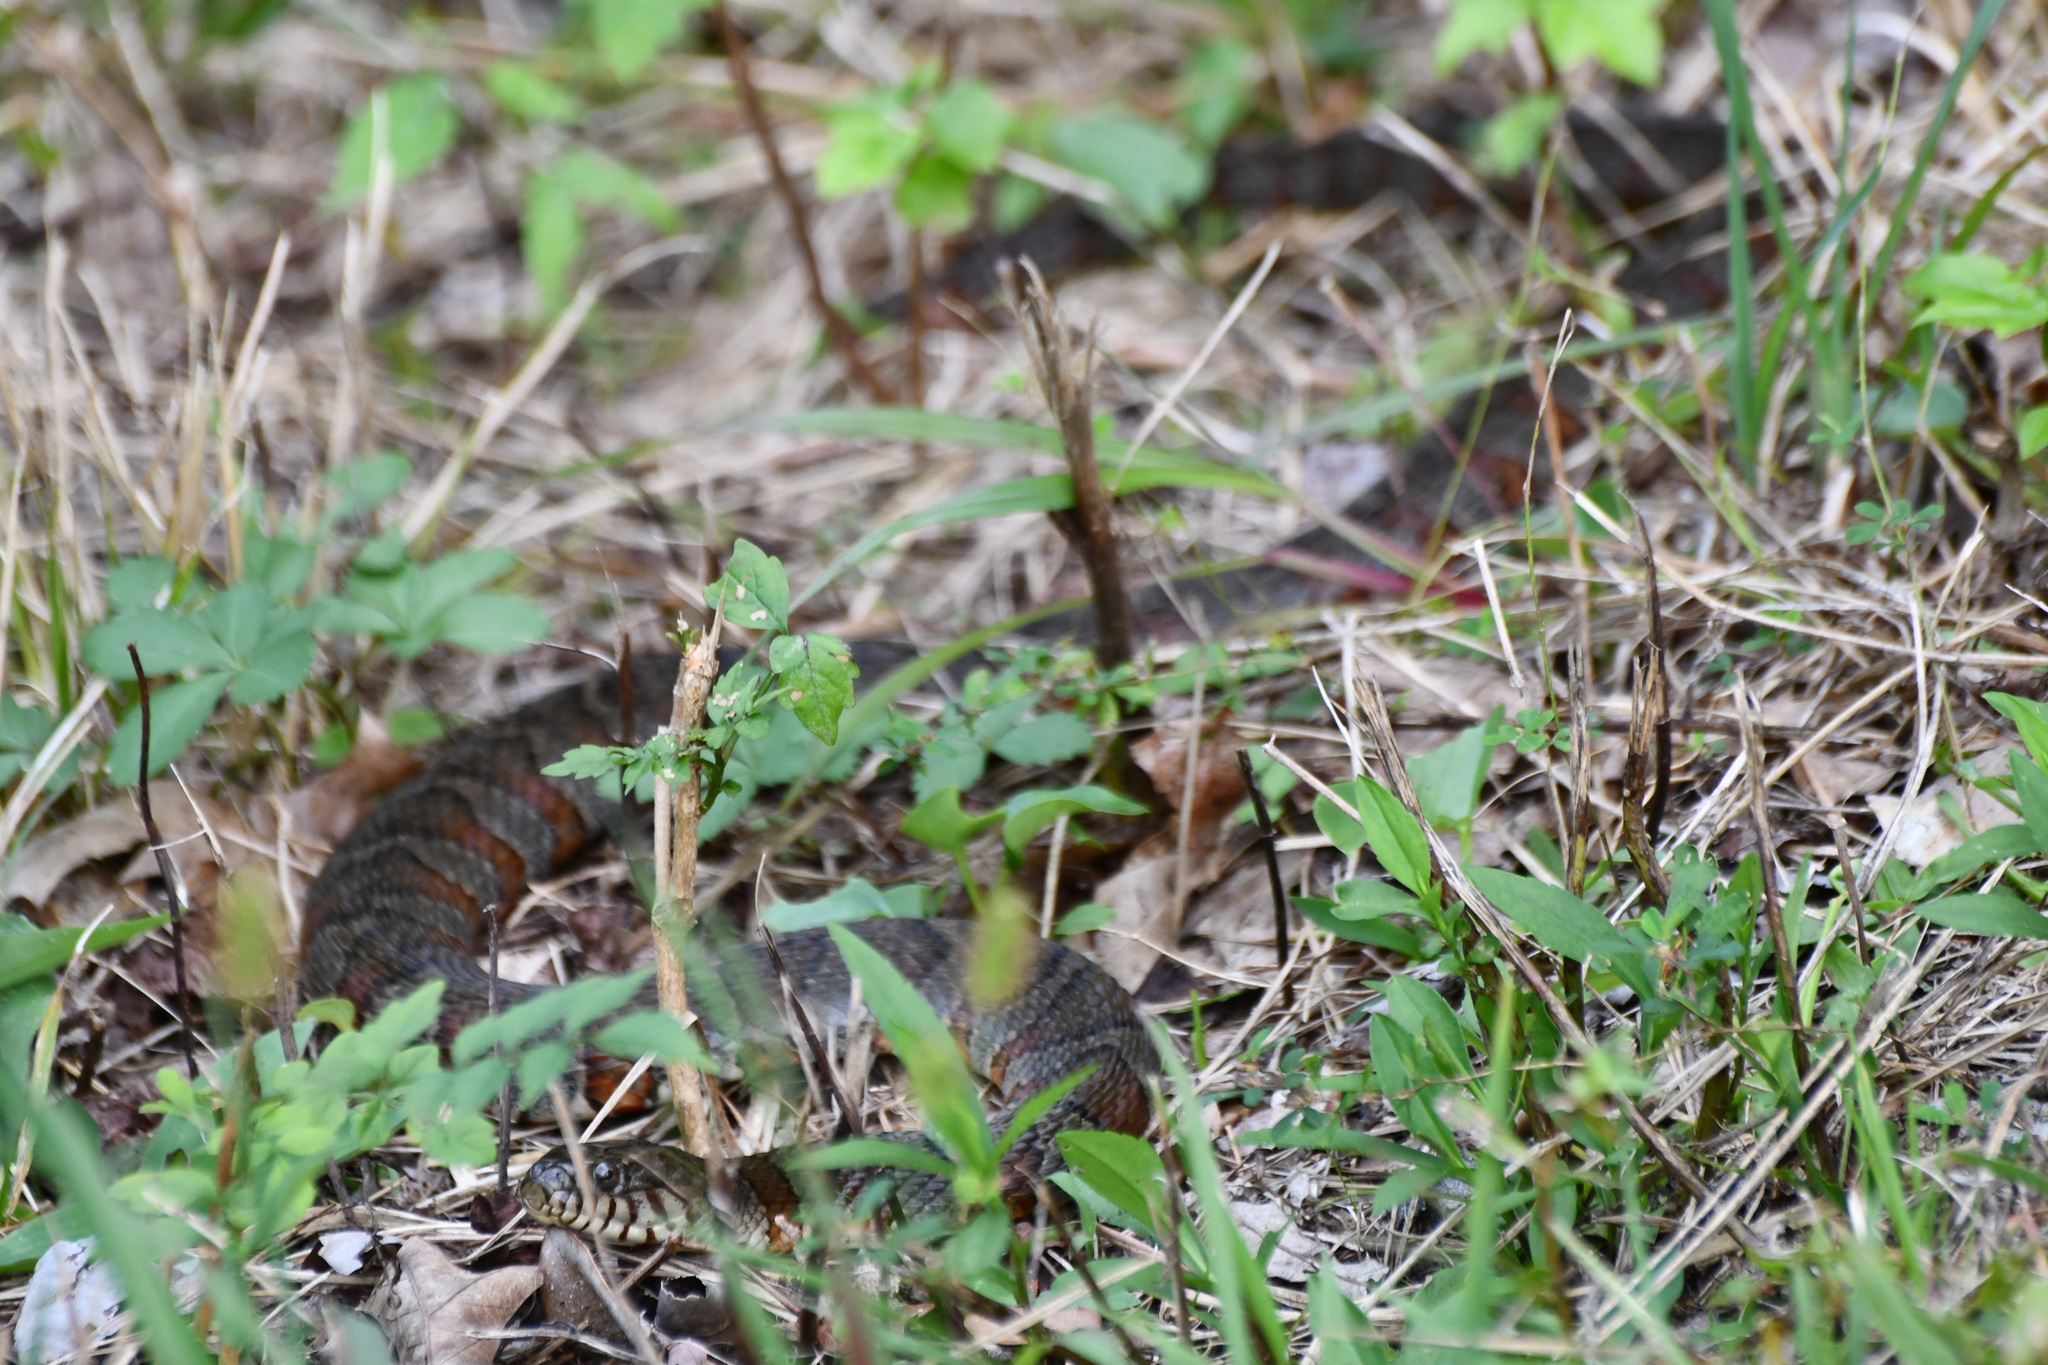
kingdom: Animalia
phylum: Chordata
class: Squamata
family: Colubridae
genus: Nerodia
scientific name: Nerodia sipedon
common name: Northern water snake
